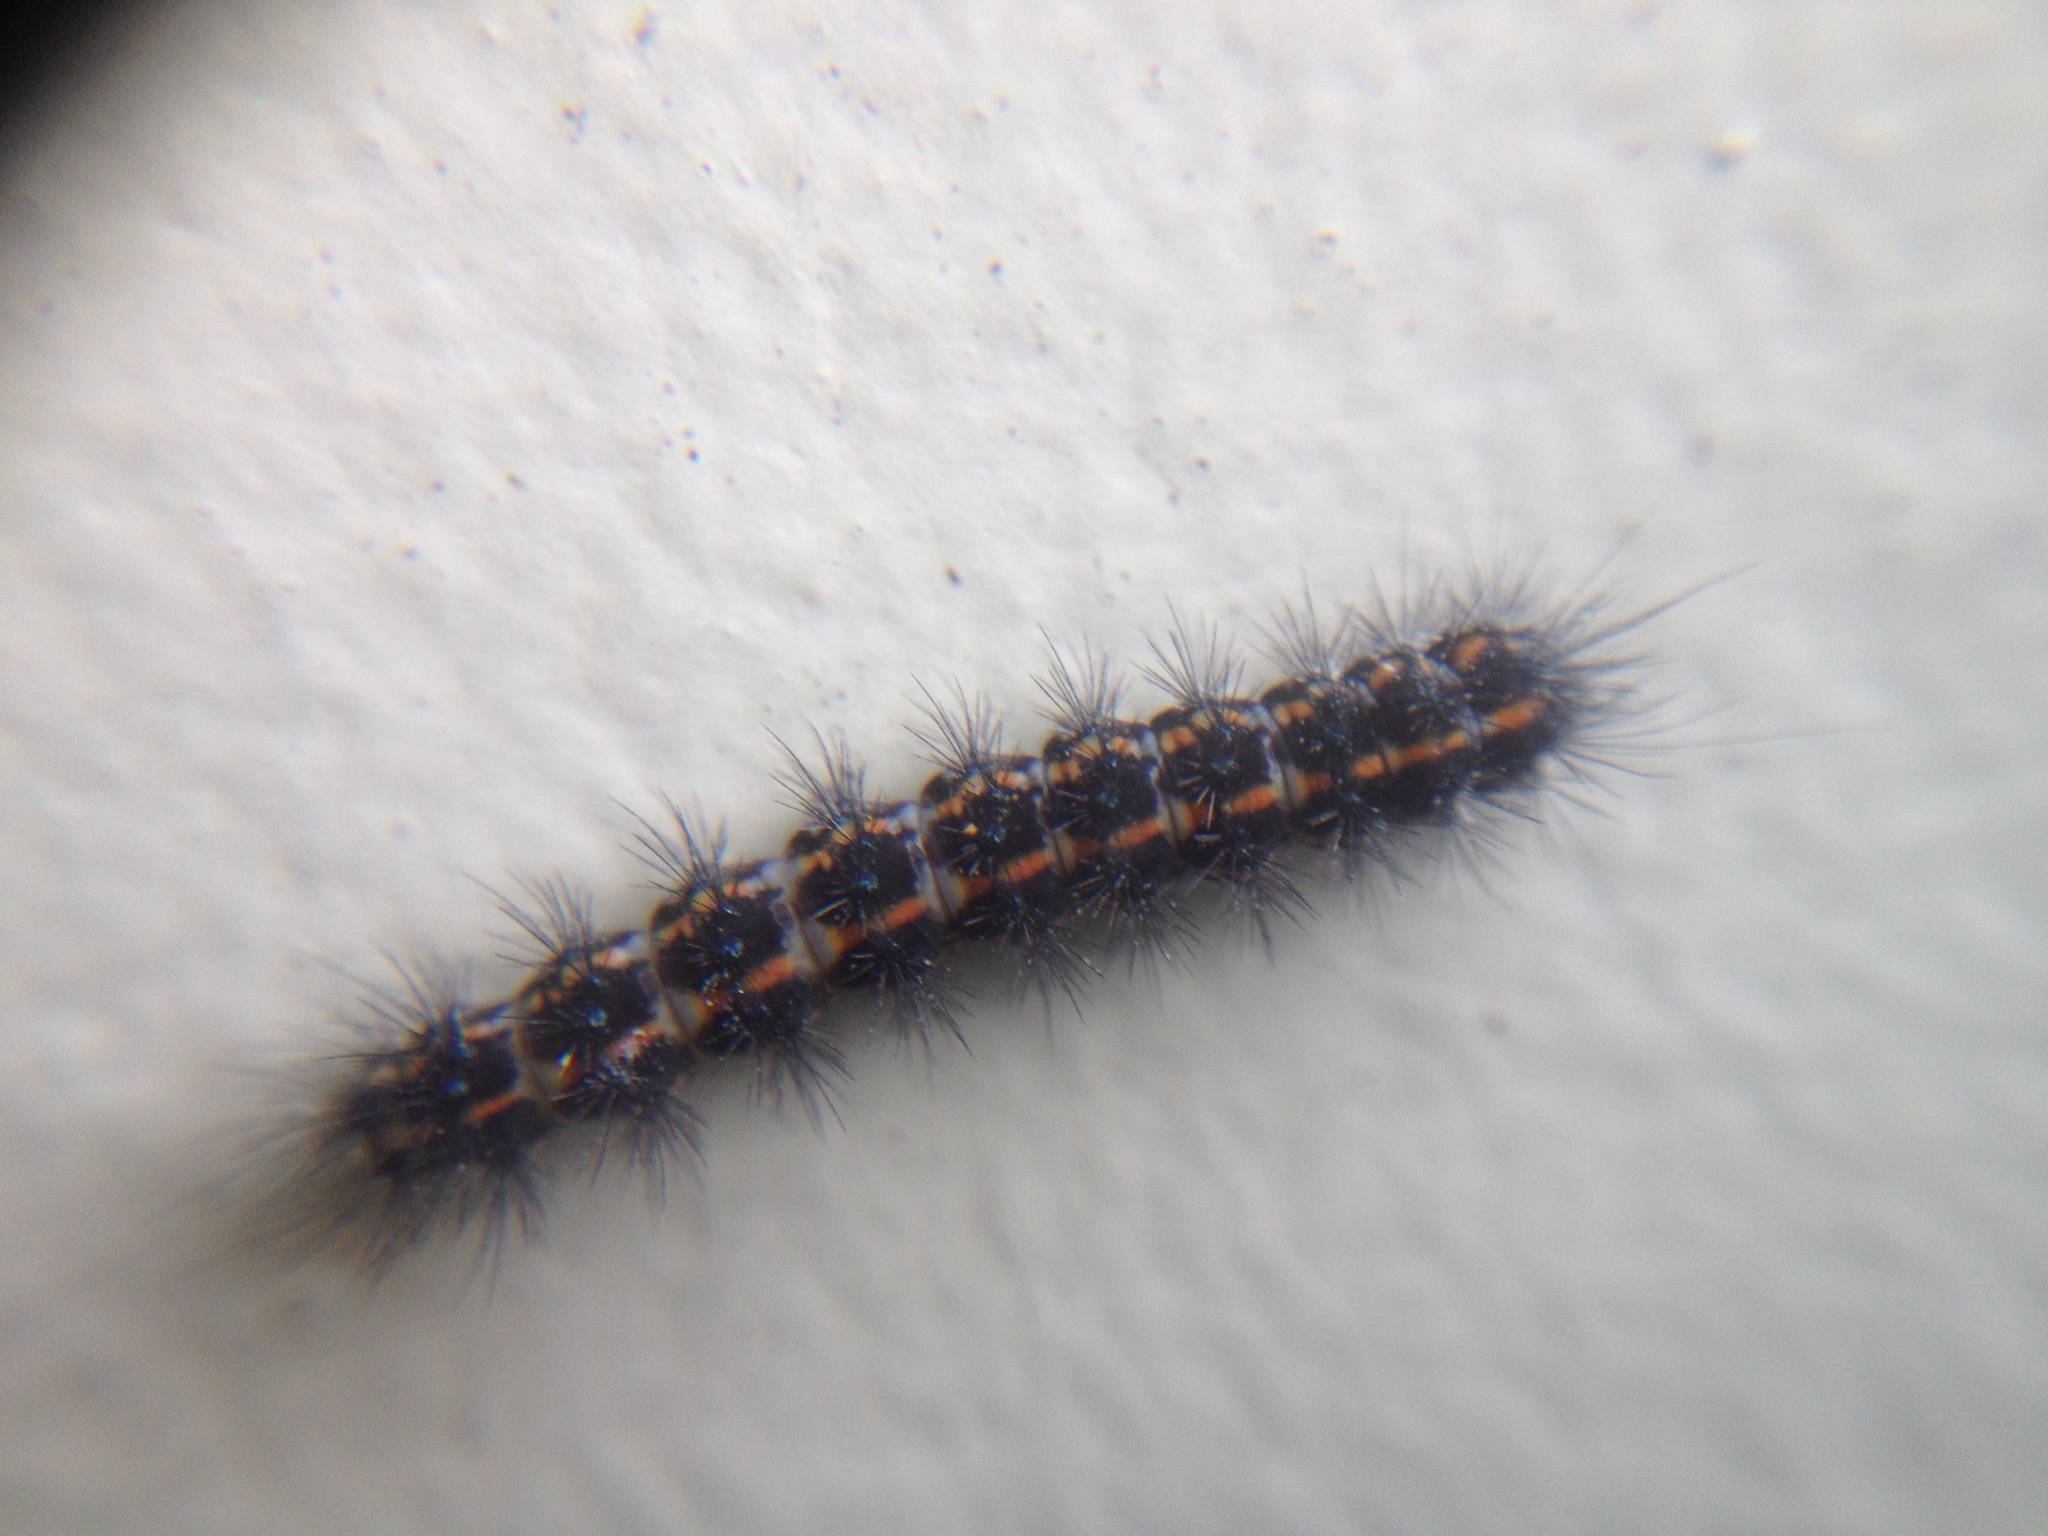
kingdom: Animalia
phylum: Arthropoda
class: Insecta
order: Lepidoptera
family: Erebidae
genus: Nyctemera
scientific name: Nyctemera annulatum
